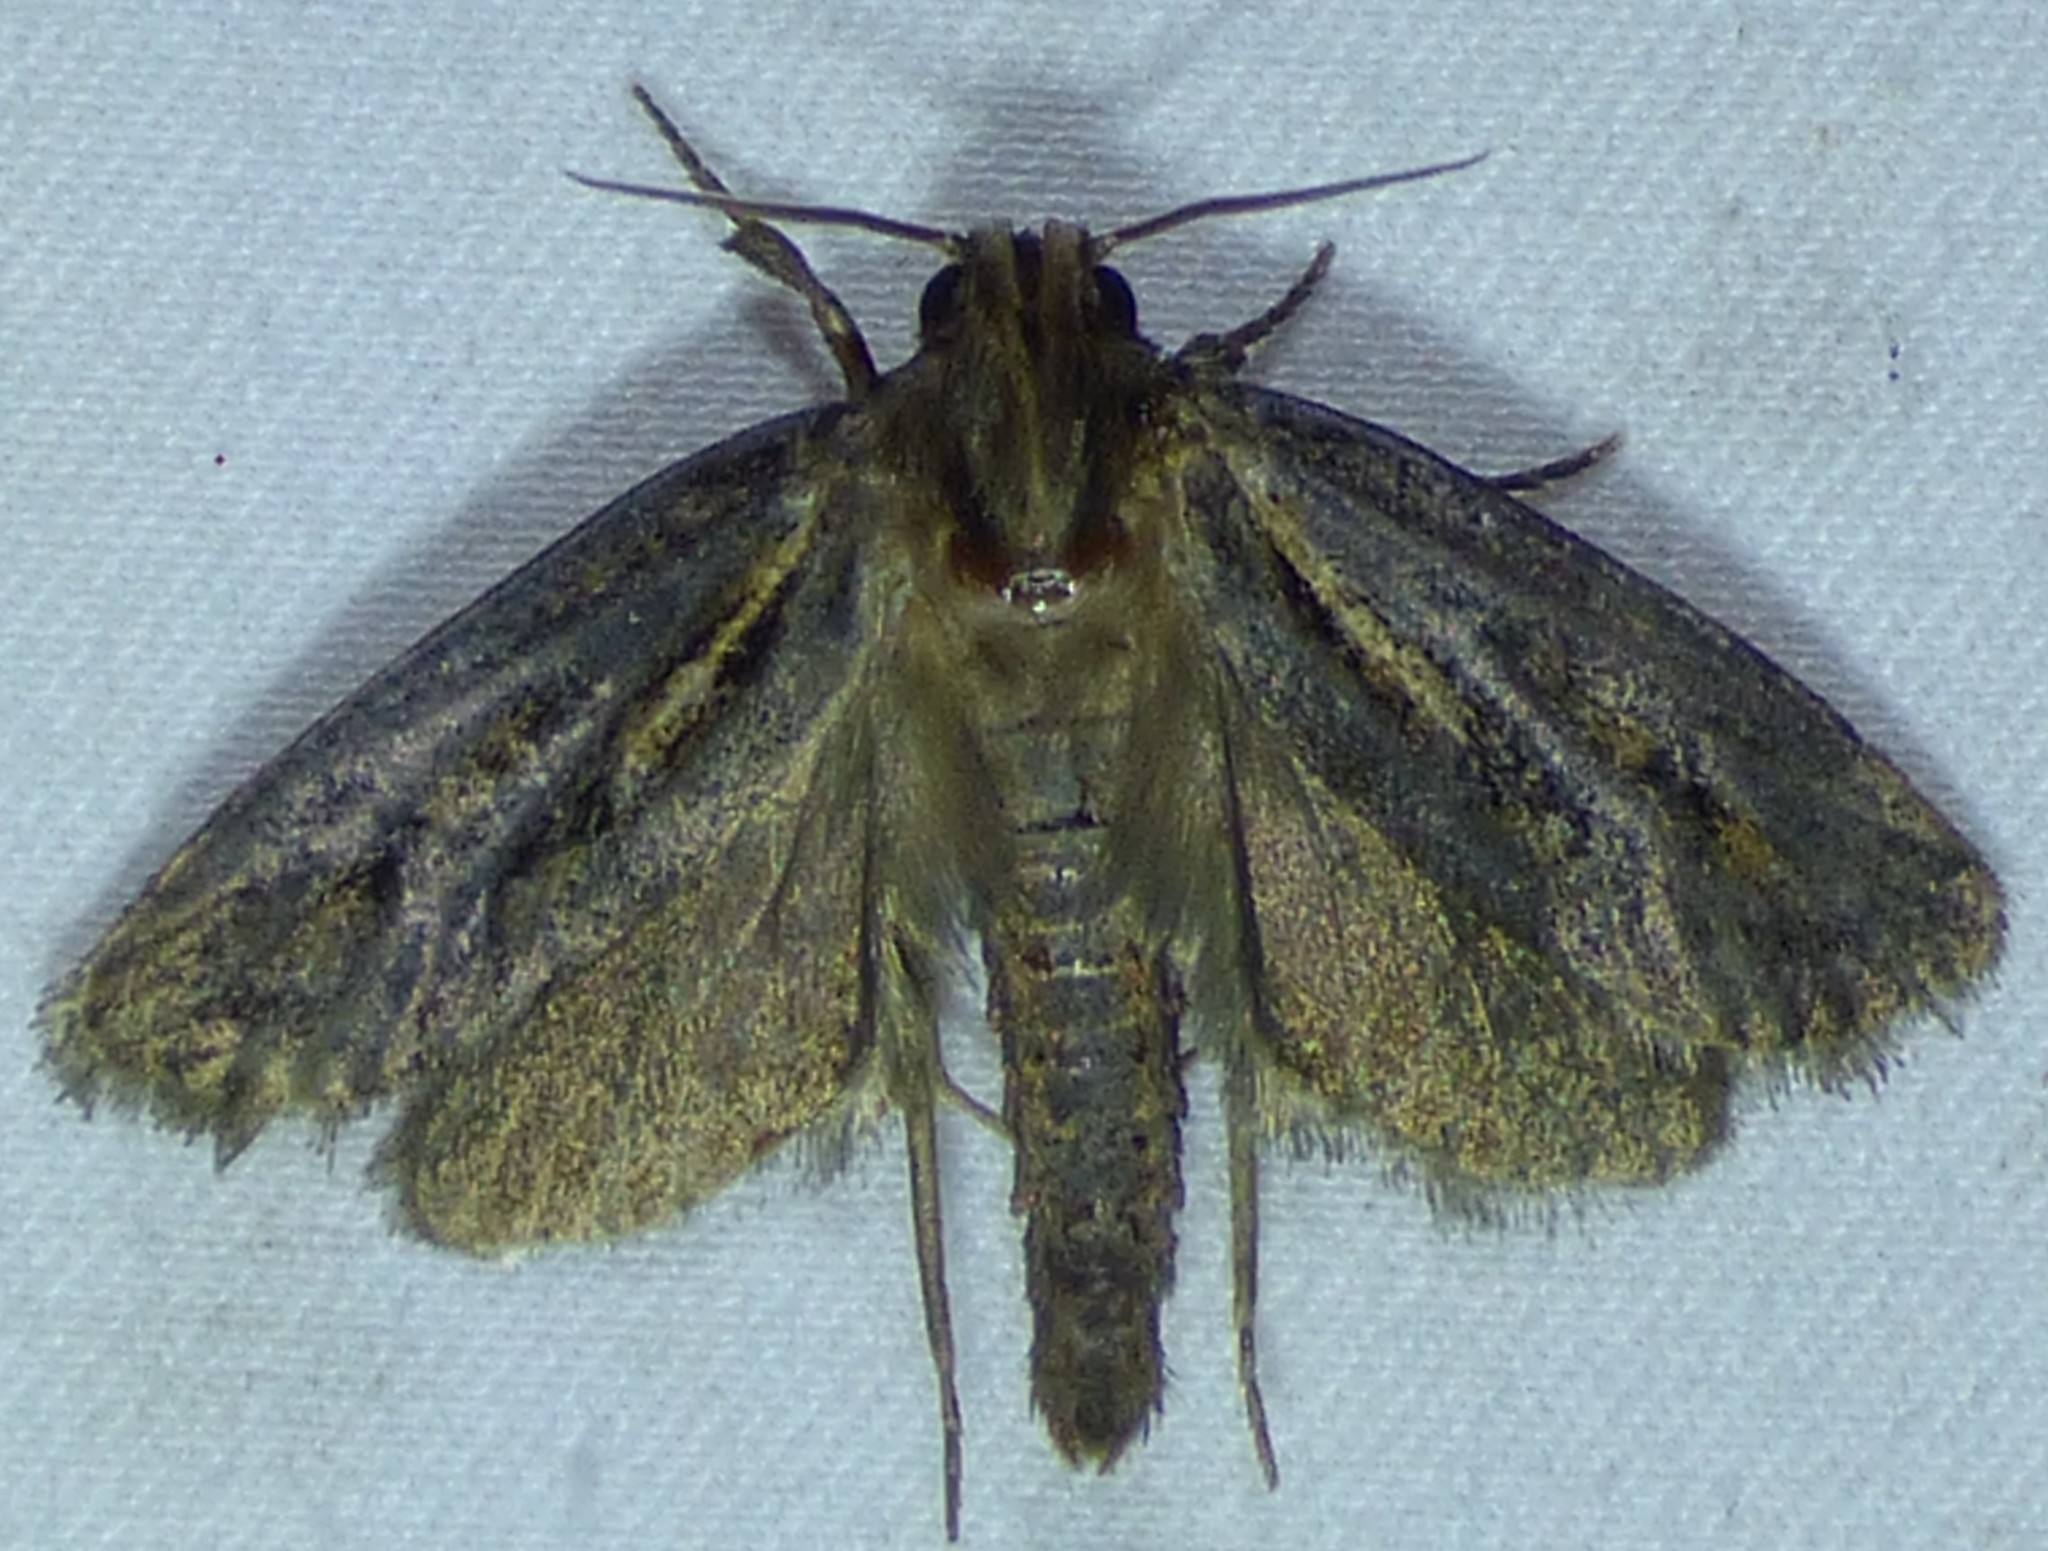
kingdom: Animalia
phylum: Arthropoda
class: Insecta
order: Lepidoptera
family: Tineidae
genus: Acrolophus
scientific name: Acrolophus popeanella
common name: Clemens' grass tubeworm moth
